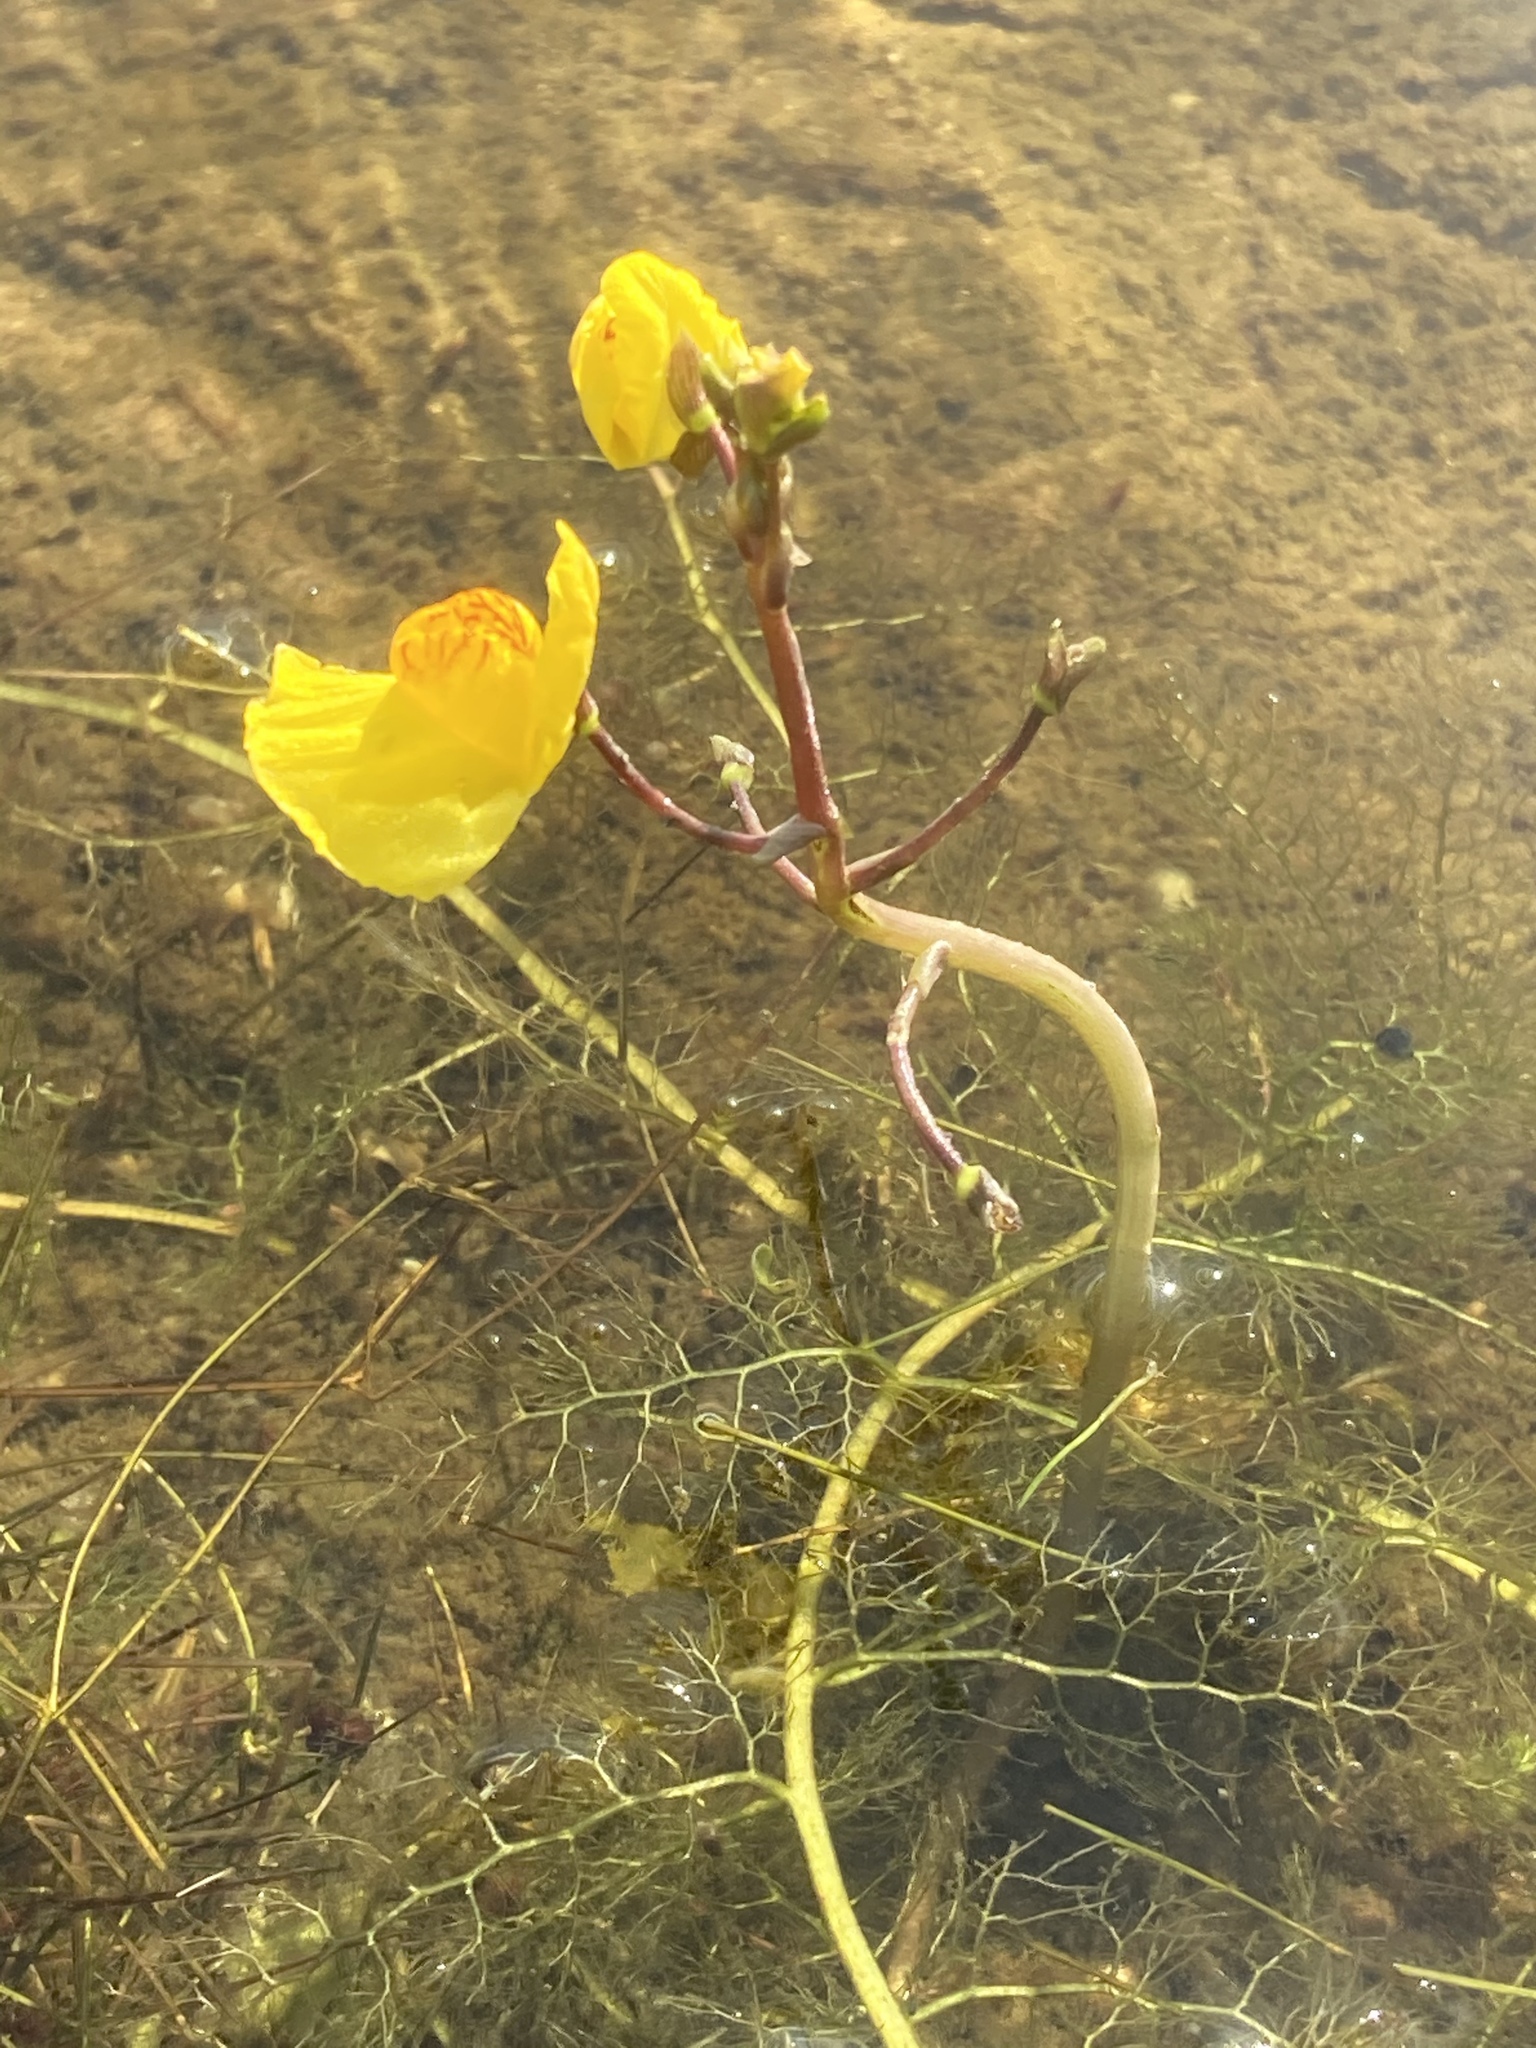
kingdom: Plantae
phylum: Tracheophyta
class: Magnoliopsida
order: Lamiales
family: Lentibulariaceae
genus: Utricularia
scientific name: Utricularia australis
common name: Bladderwort
